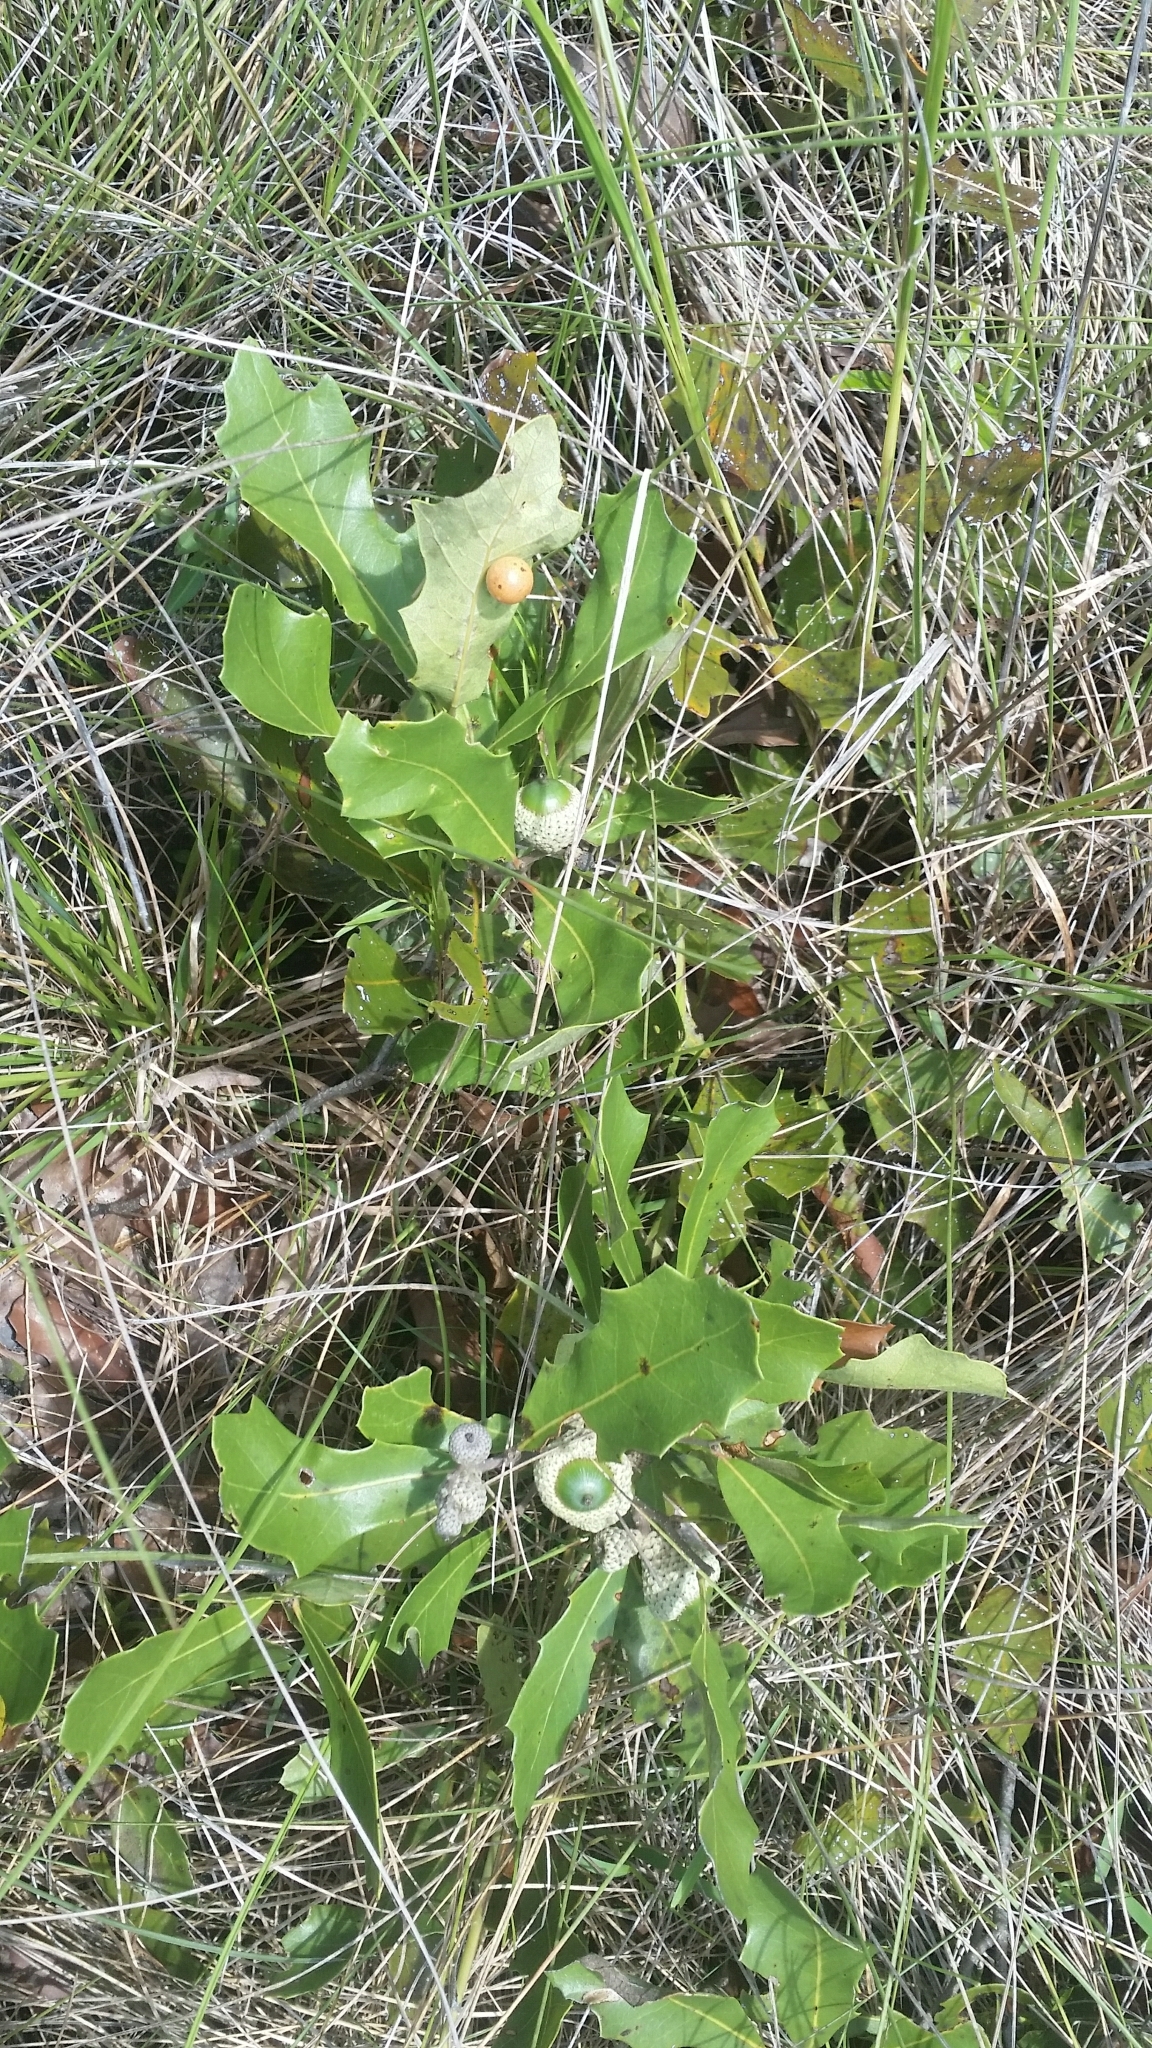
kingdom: Plantae
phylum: Tracheophyta
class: Magnoliopsida
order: Fagales
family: Fagaceae
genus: Quercus
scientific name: Quercus minima
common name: Dwarf live oak
